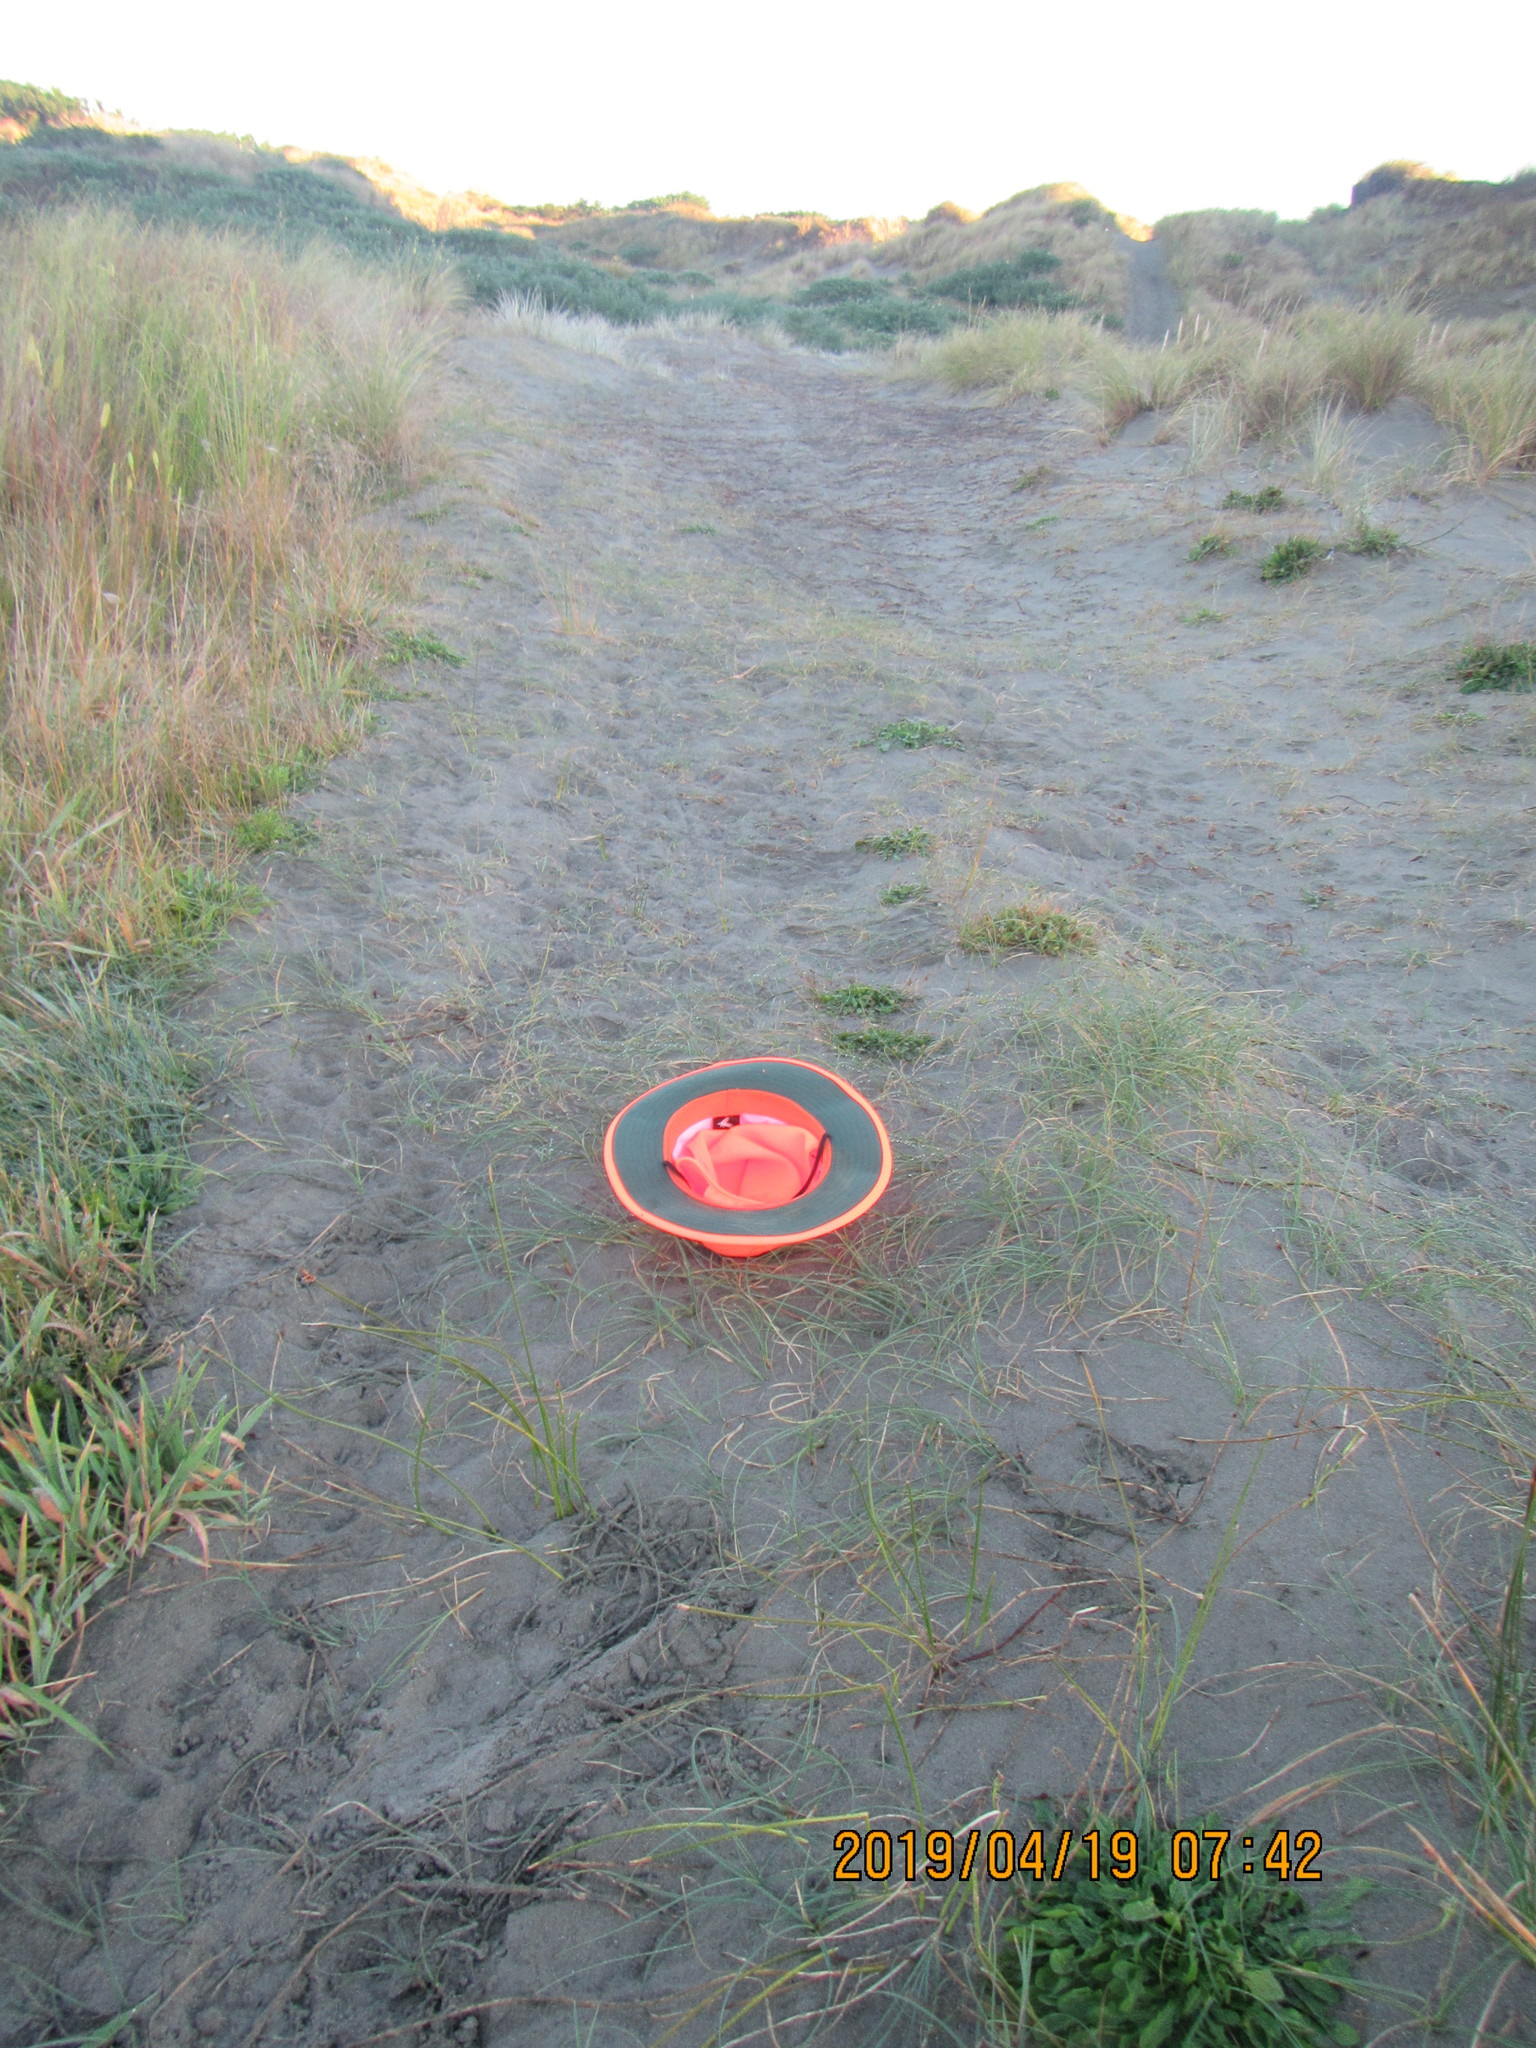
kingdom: Plantae
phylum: Tracheophyta
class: Liliopsida
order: Poales
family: Cyperaceae
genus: Carex
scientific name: Carex pumila
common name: Dwarf sedge
